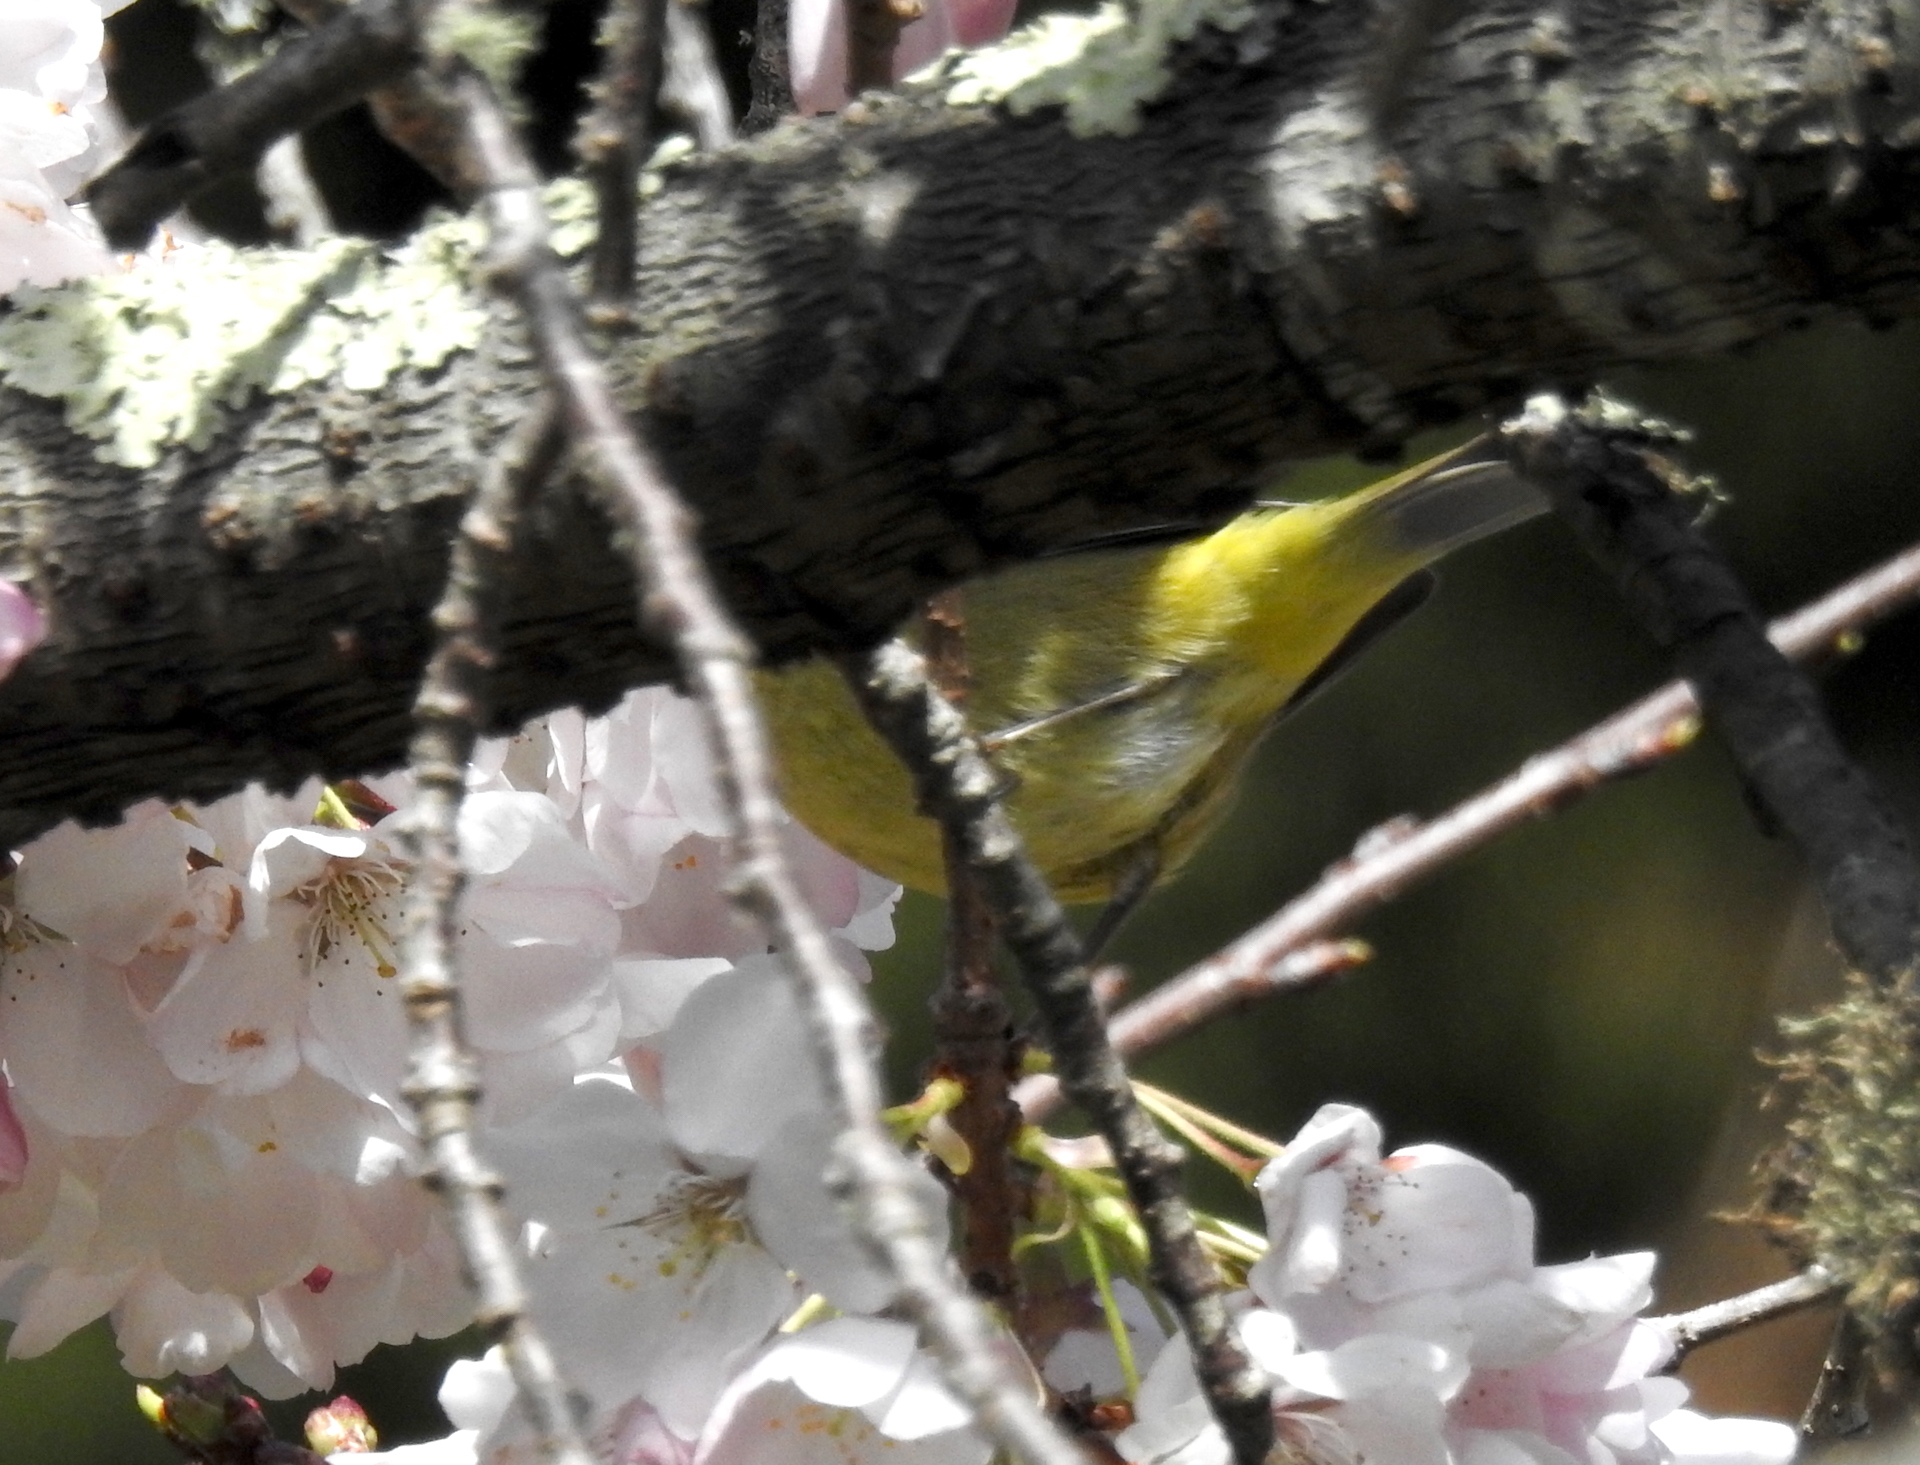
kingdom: Animalia
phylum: Chordata
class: Aves
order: Passeriformes
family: Parulidae
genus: Leiothlypis
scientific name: Leiothlypis celata
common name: Orange-crowned warbler
